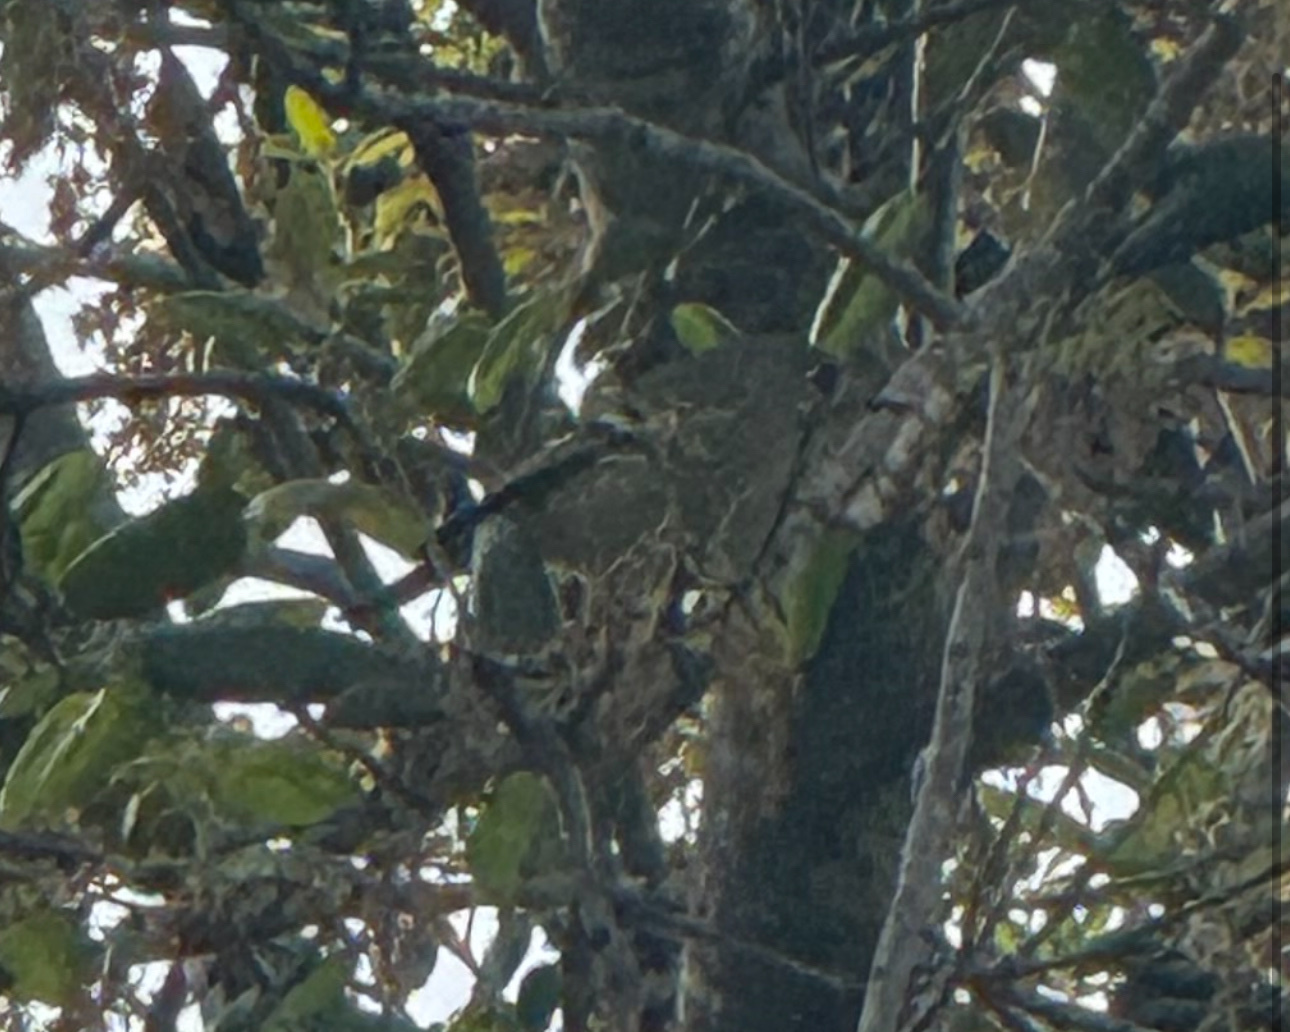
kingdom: Animalia
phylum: Chordata
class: Aves
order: Passeriformes
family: Regulidae
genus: Regulus
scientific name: Regulus calendula
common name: Ruby-crowned kinglet
